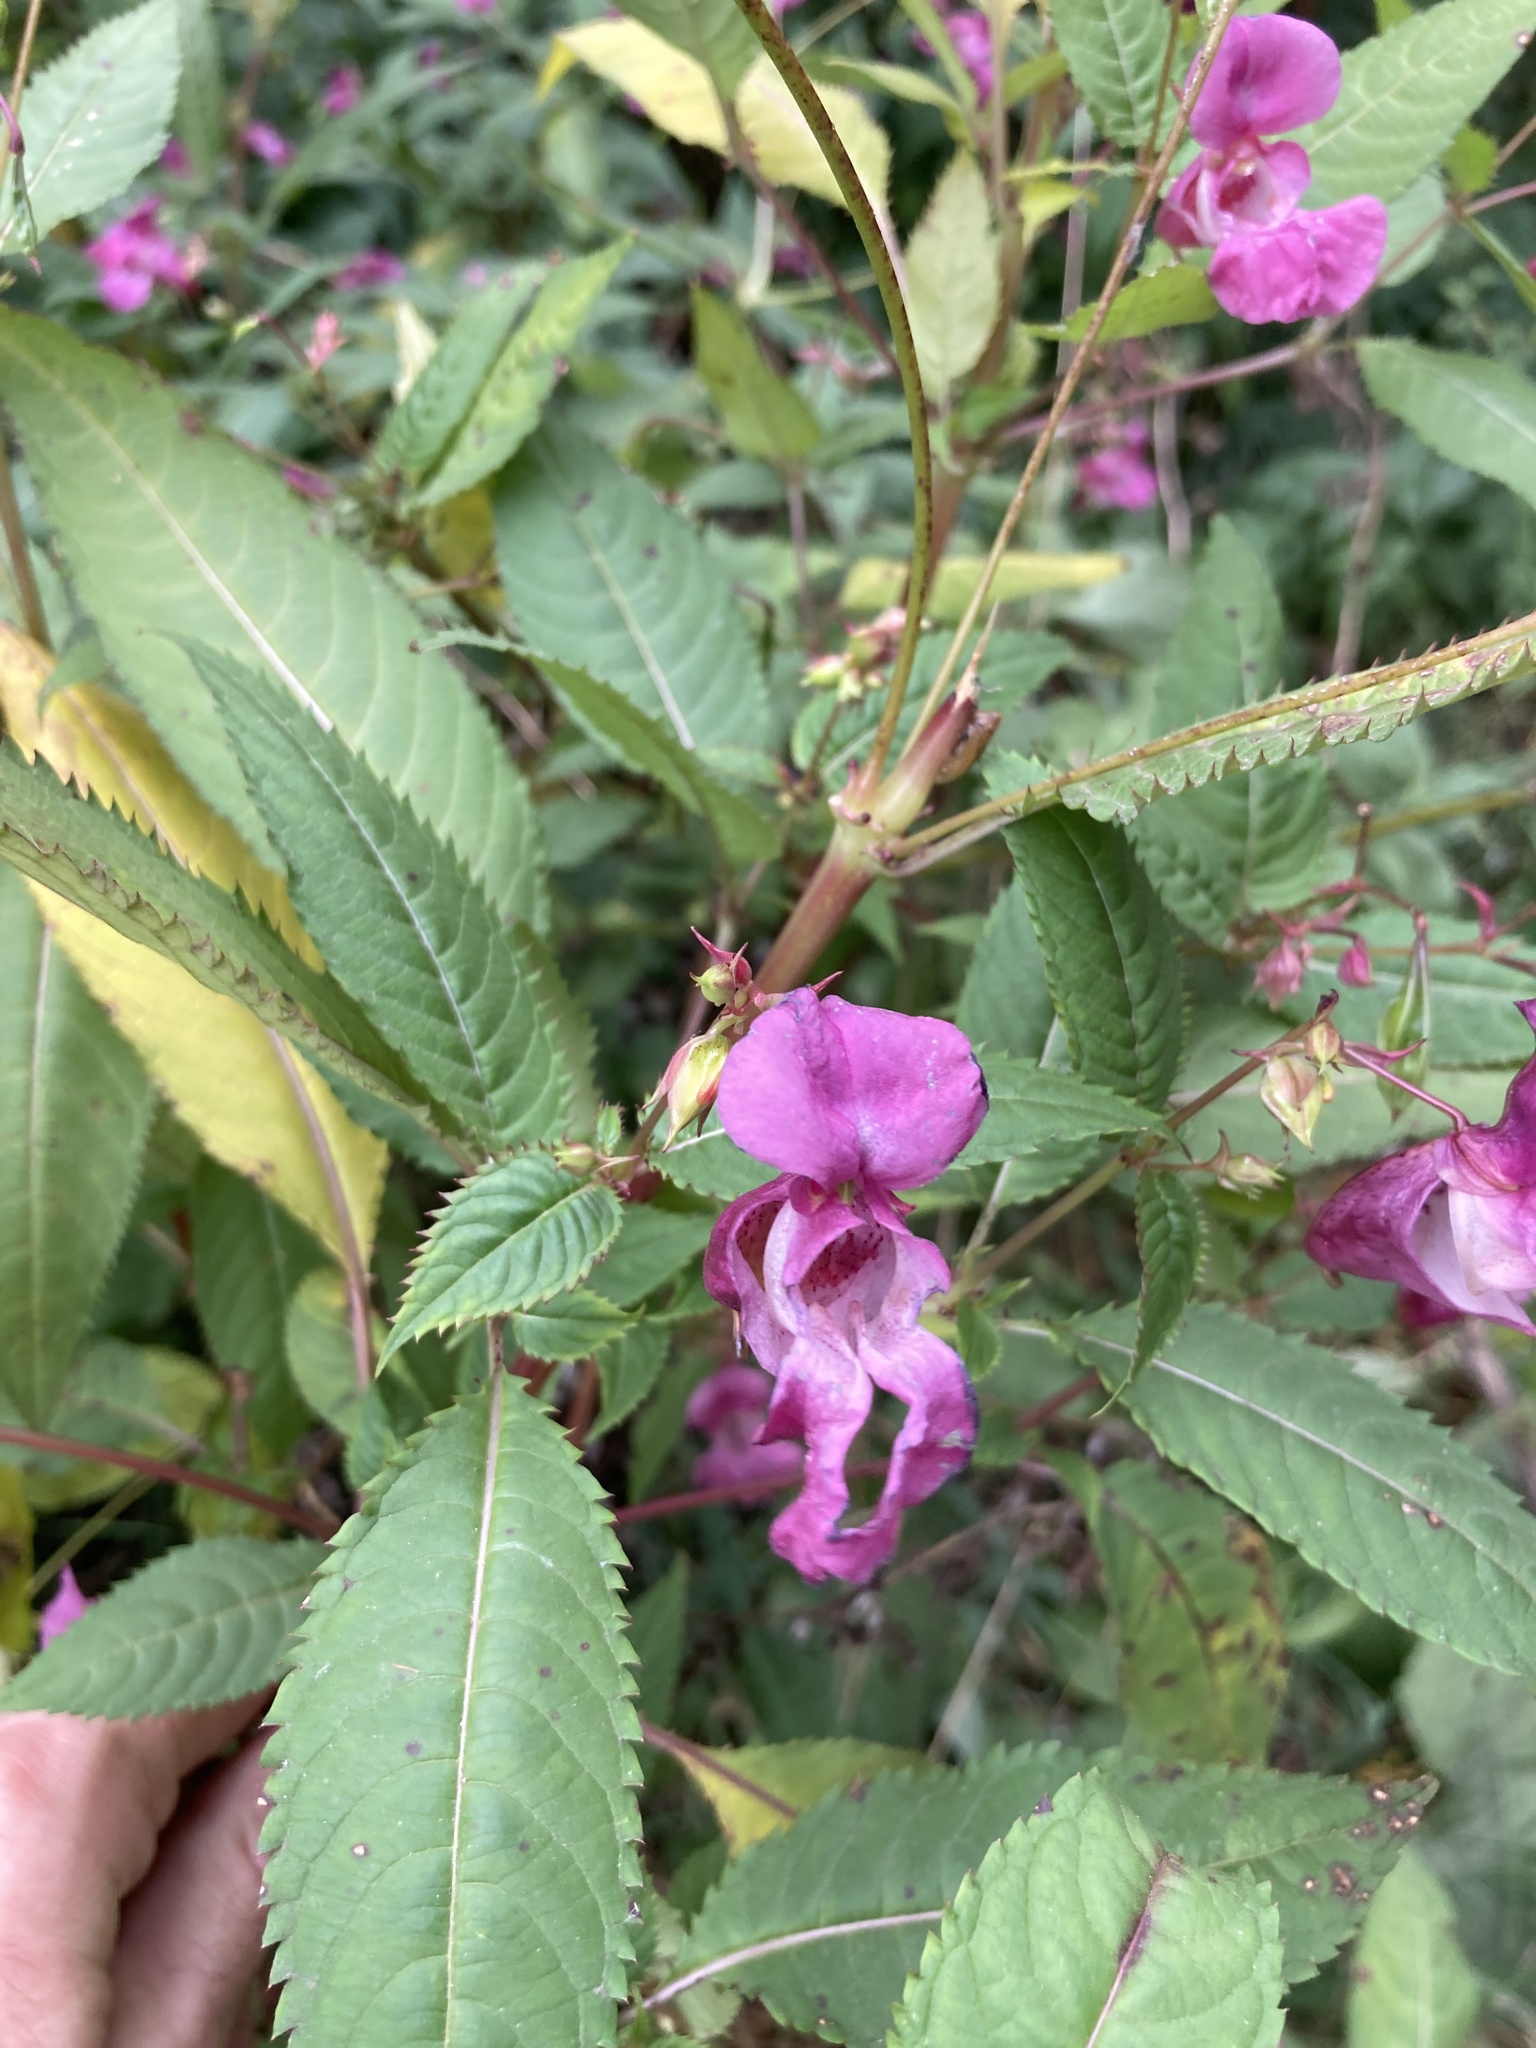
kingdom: Plantae
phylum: Tracheophyta
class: Magnoliopsida
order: Ericales
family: Balsaminaceae
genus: Impatiens
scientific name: Impatiens glandulifera
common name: Himalayan balsam
